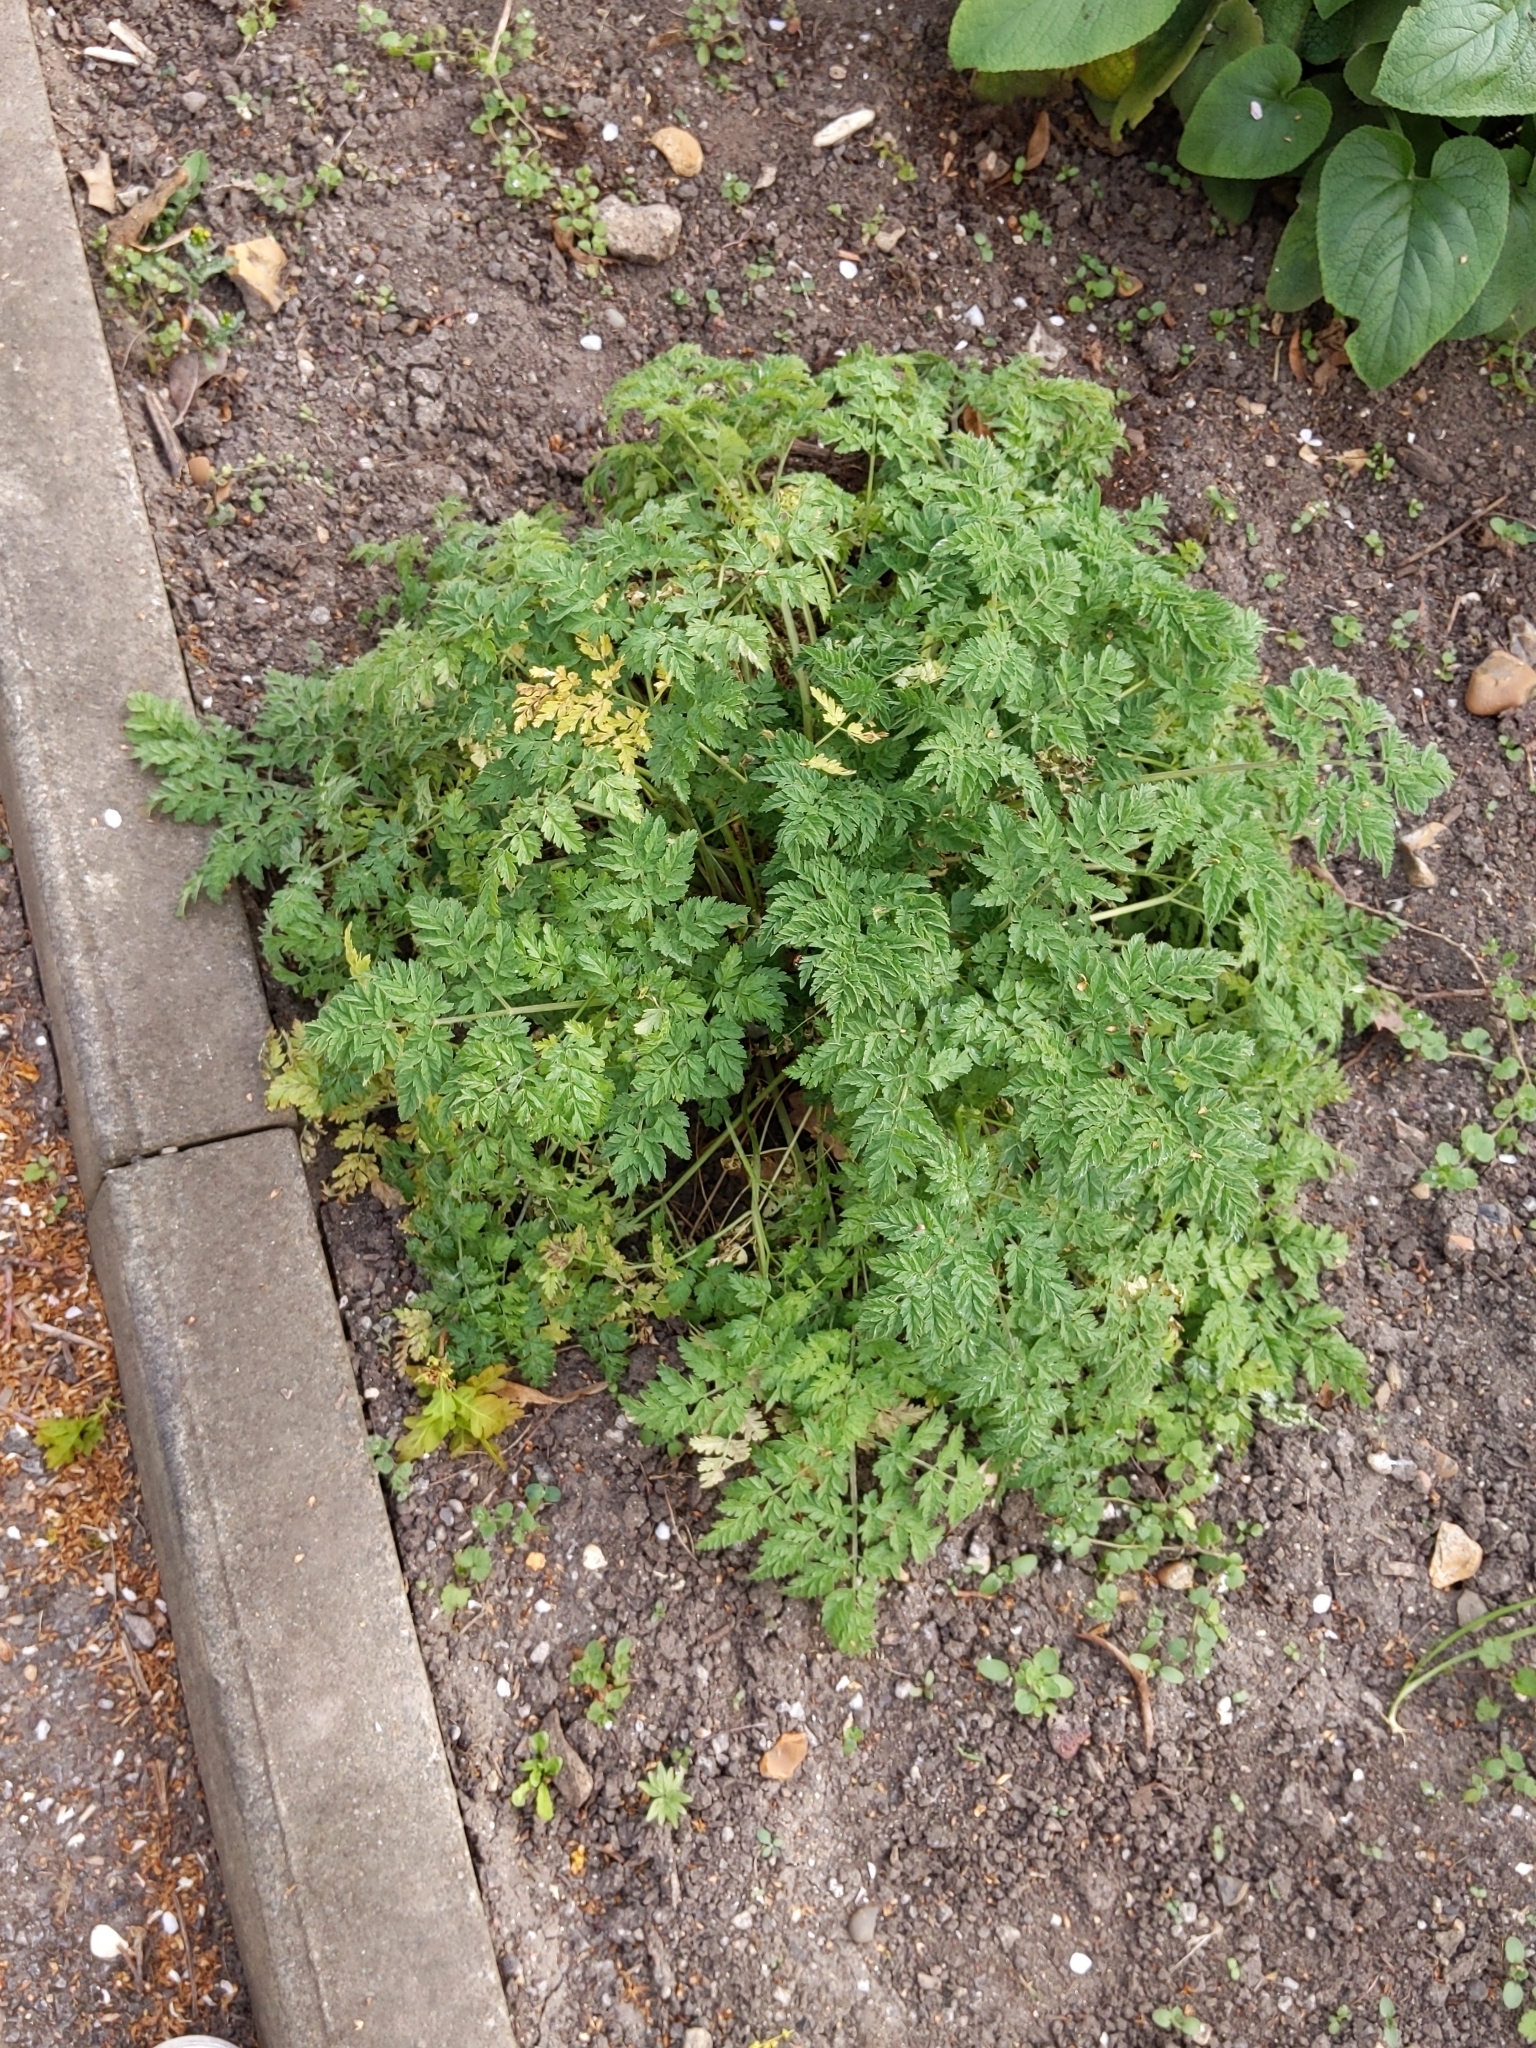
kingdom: Plantae
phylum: Tracheophyta
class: Magnoliopsida
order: Apiales
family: Apiaceae
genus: Anthriscus
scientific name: Anthriscus sylvestris
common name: Cow parsley
